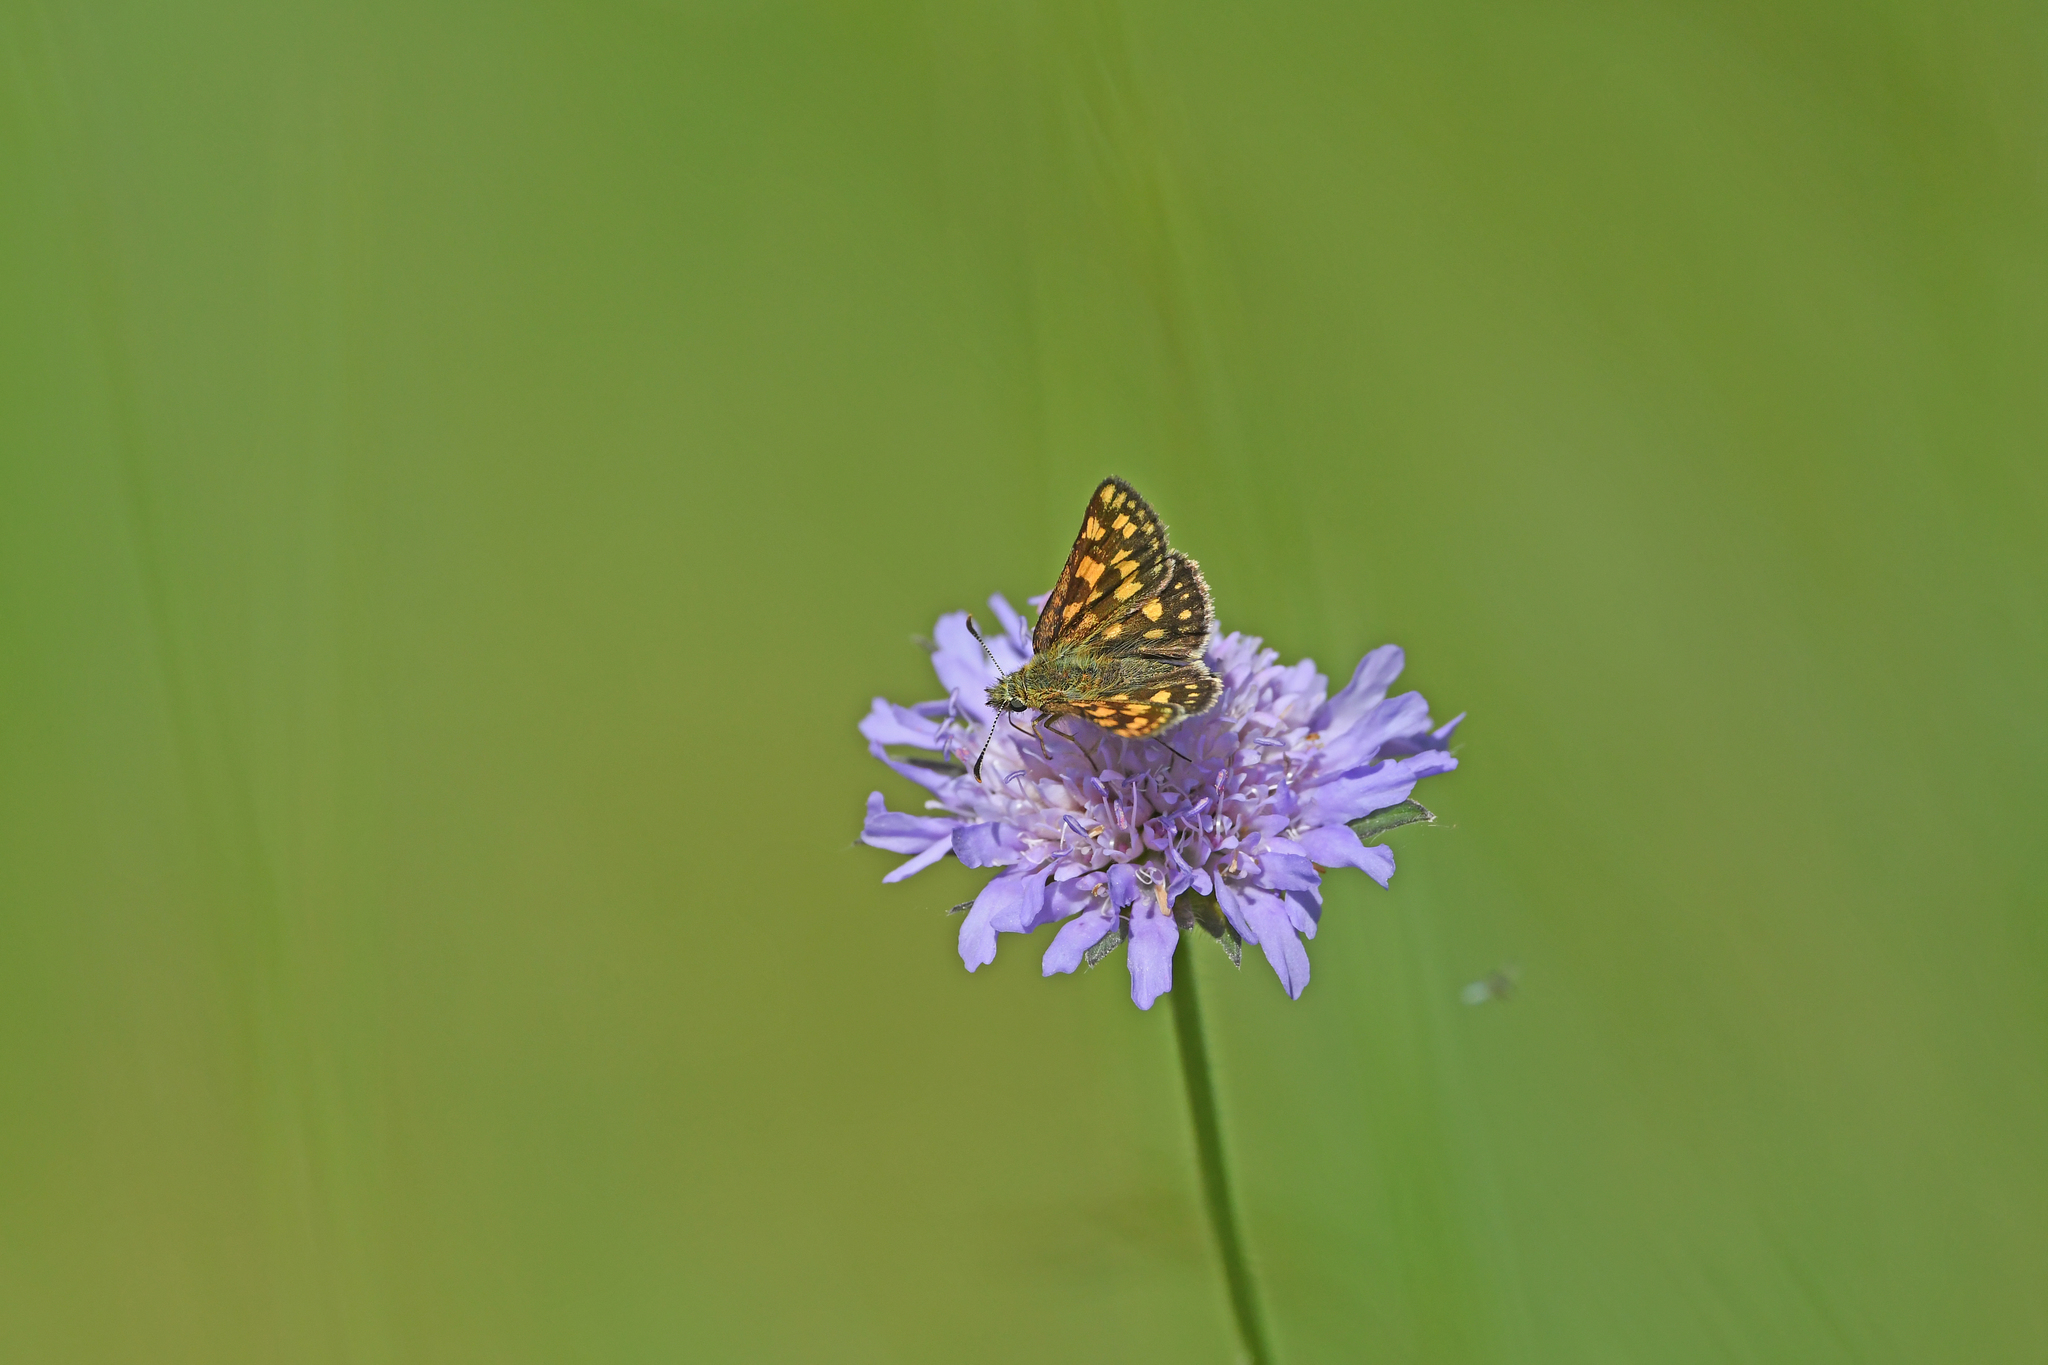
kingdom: Animalia
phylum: Arthropoda
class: Insecta
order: Lepidoptera
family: Hesperiidae
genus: Carterocephalus
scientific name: Carterocephalus palaemon
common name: Chequered skipper
